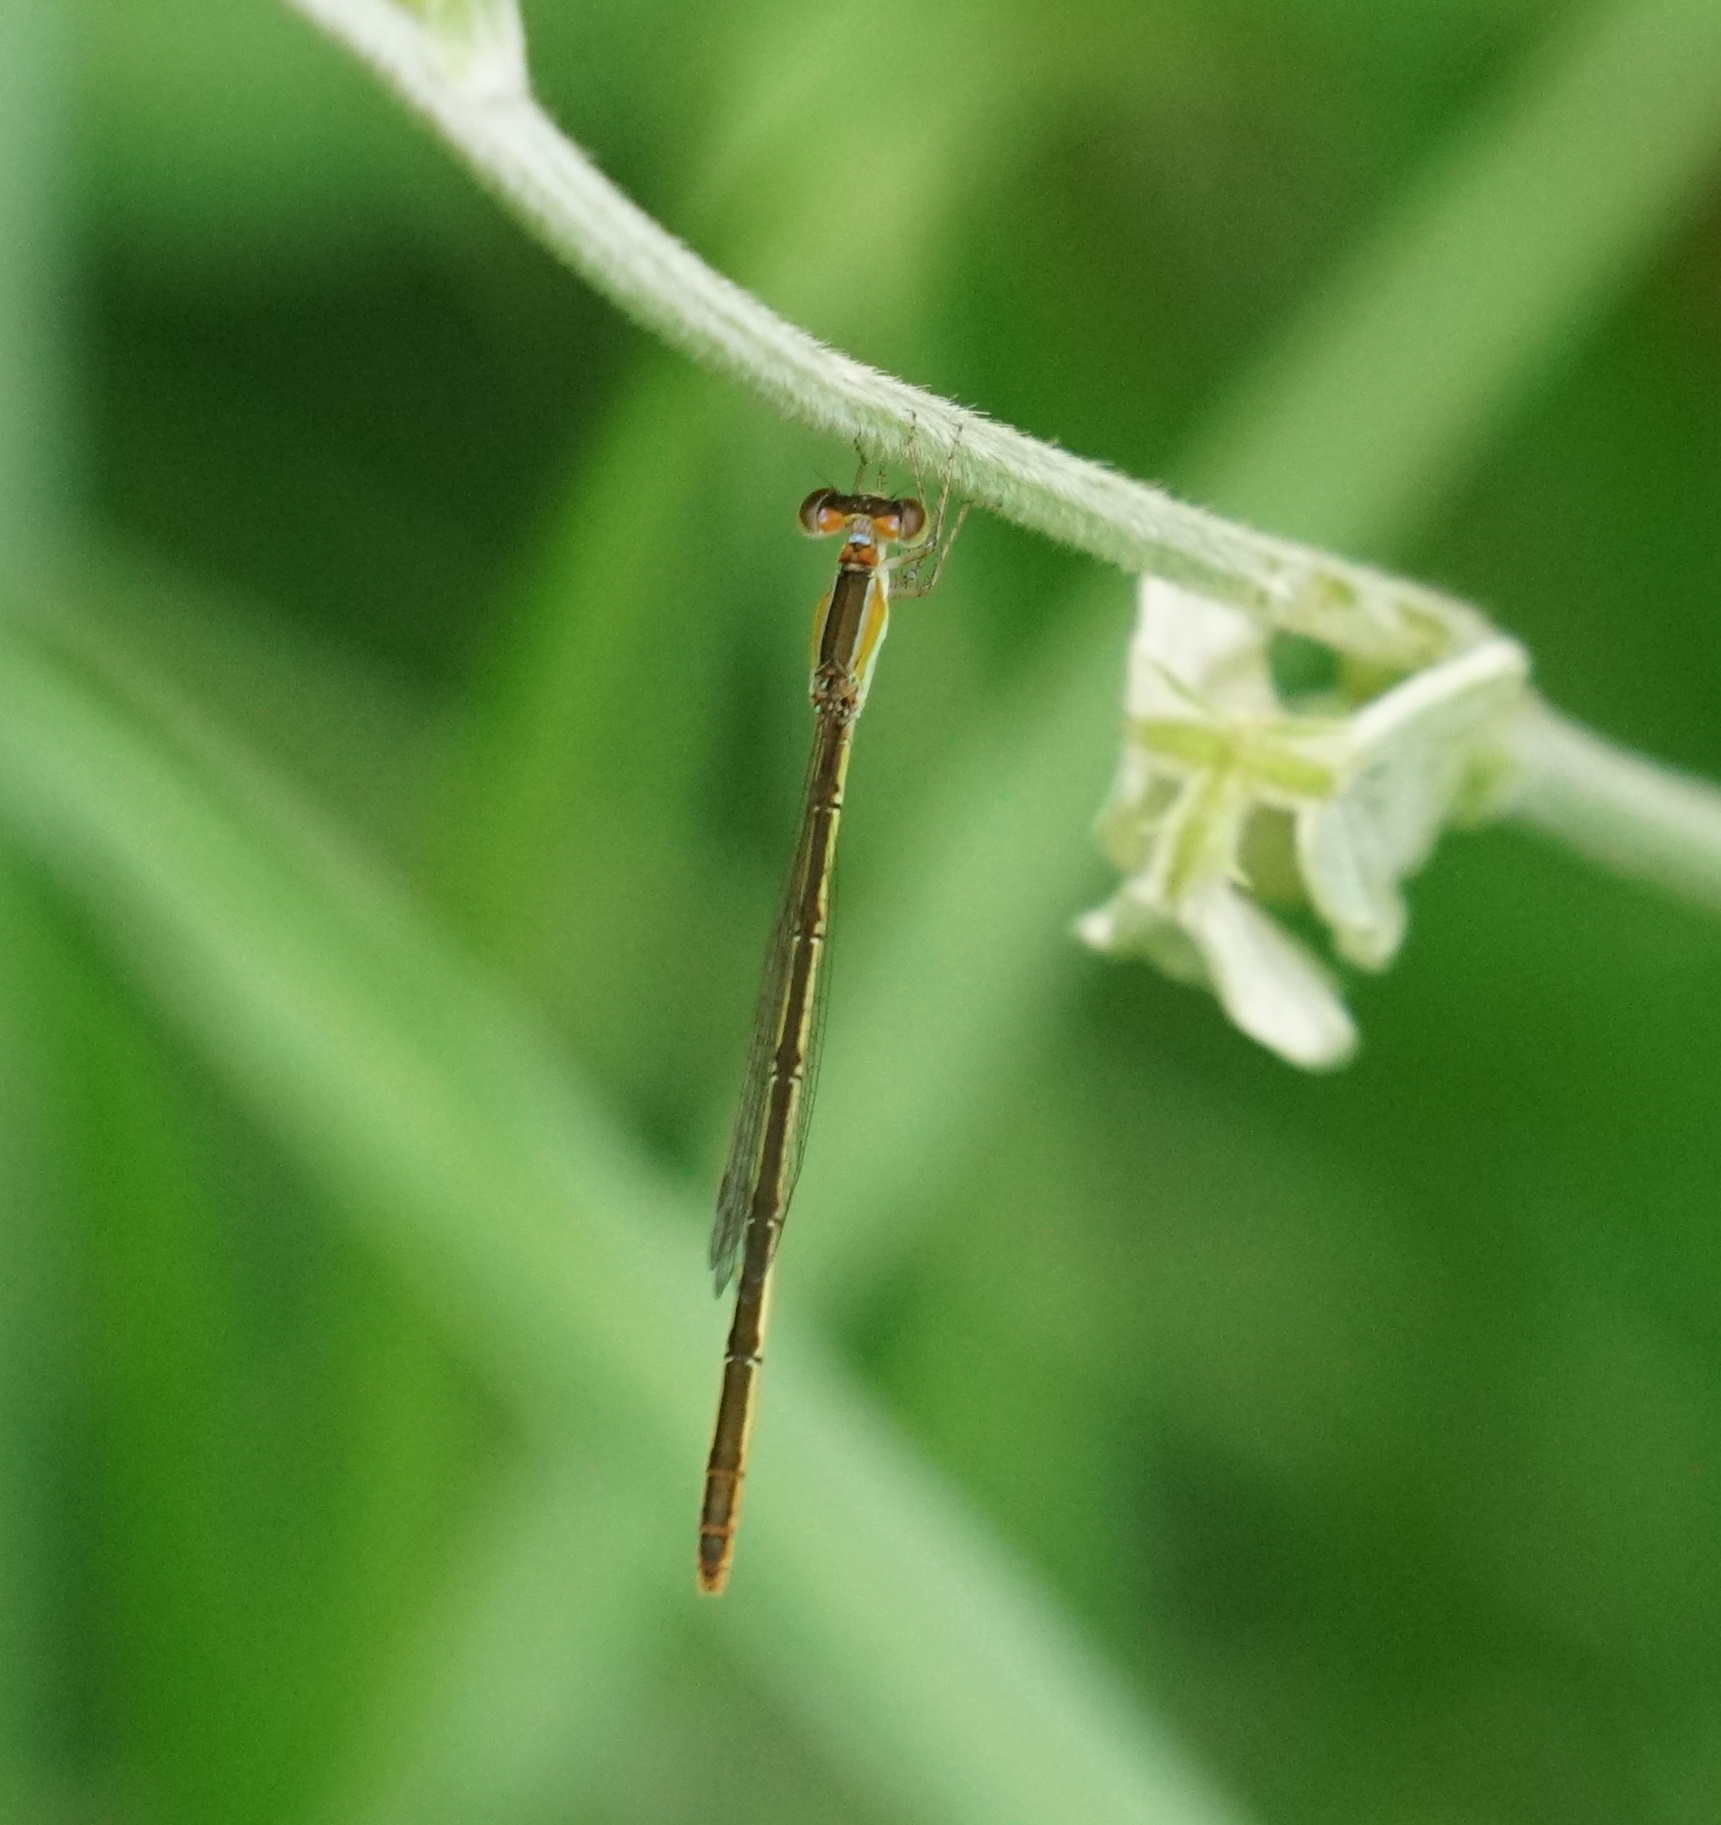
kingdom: Animalia
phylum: Arthropoda
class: Insecta
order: Odonata
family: Coenagrionidae
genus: Agriocnemis
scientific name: Agriocnemis pygmaea
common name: Pygmy wisp
